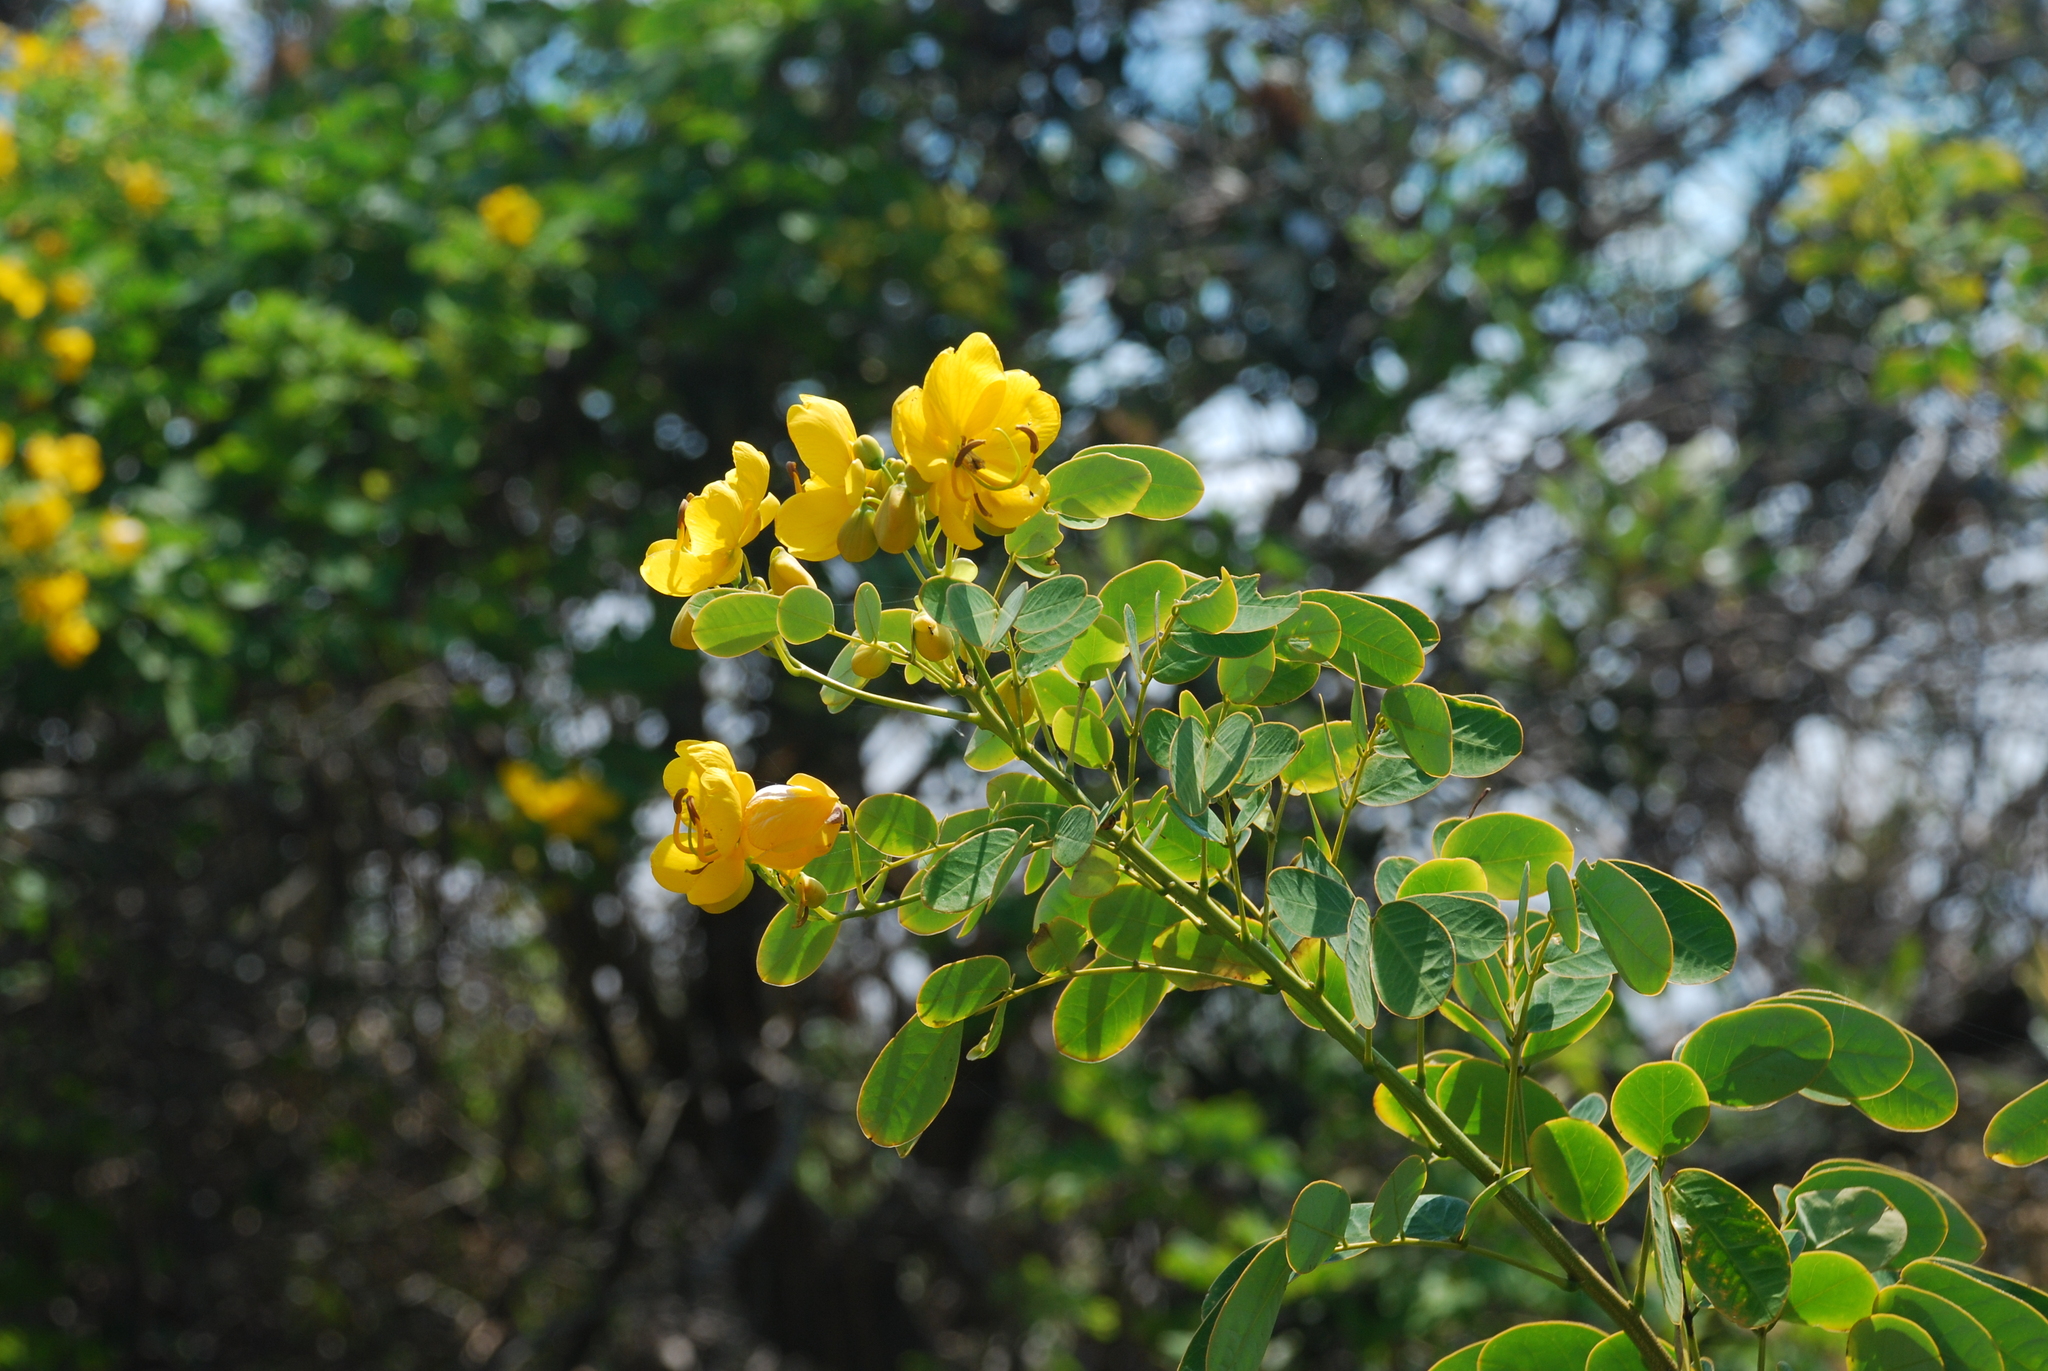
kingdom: Plantae
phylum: Tracheophyta
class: Magnoliopsida
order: Fabales
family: Fabaceae
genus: Senna
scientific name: Senna pendula
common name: Easter cassia
